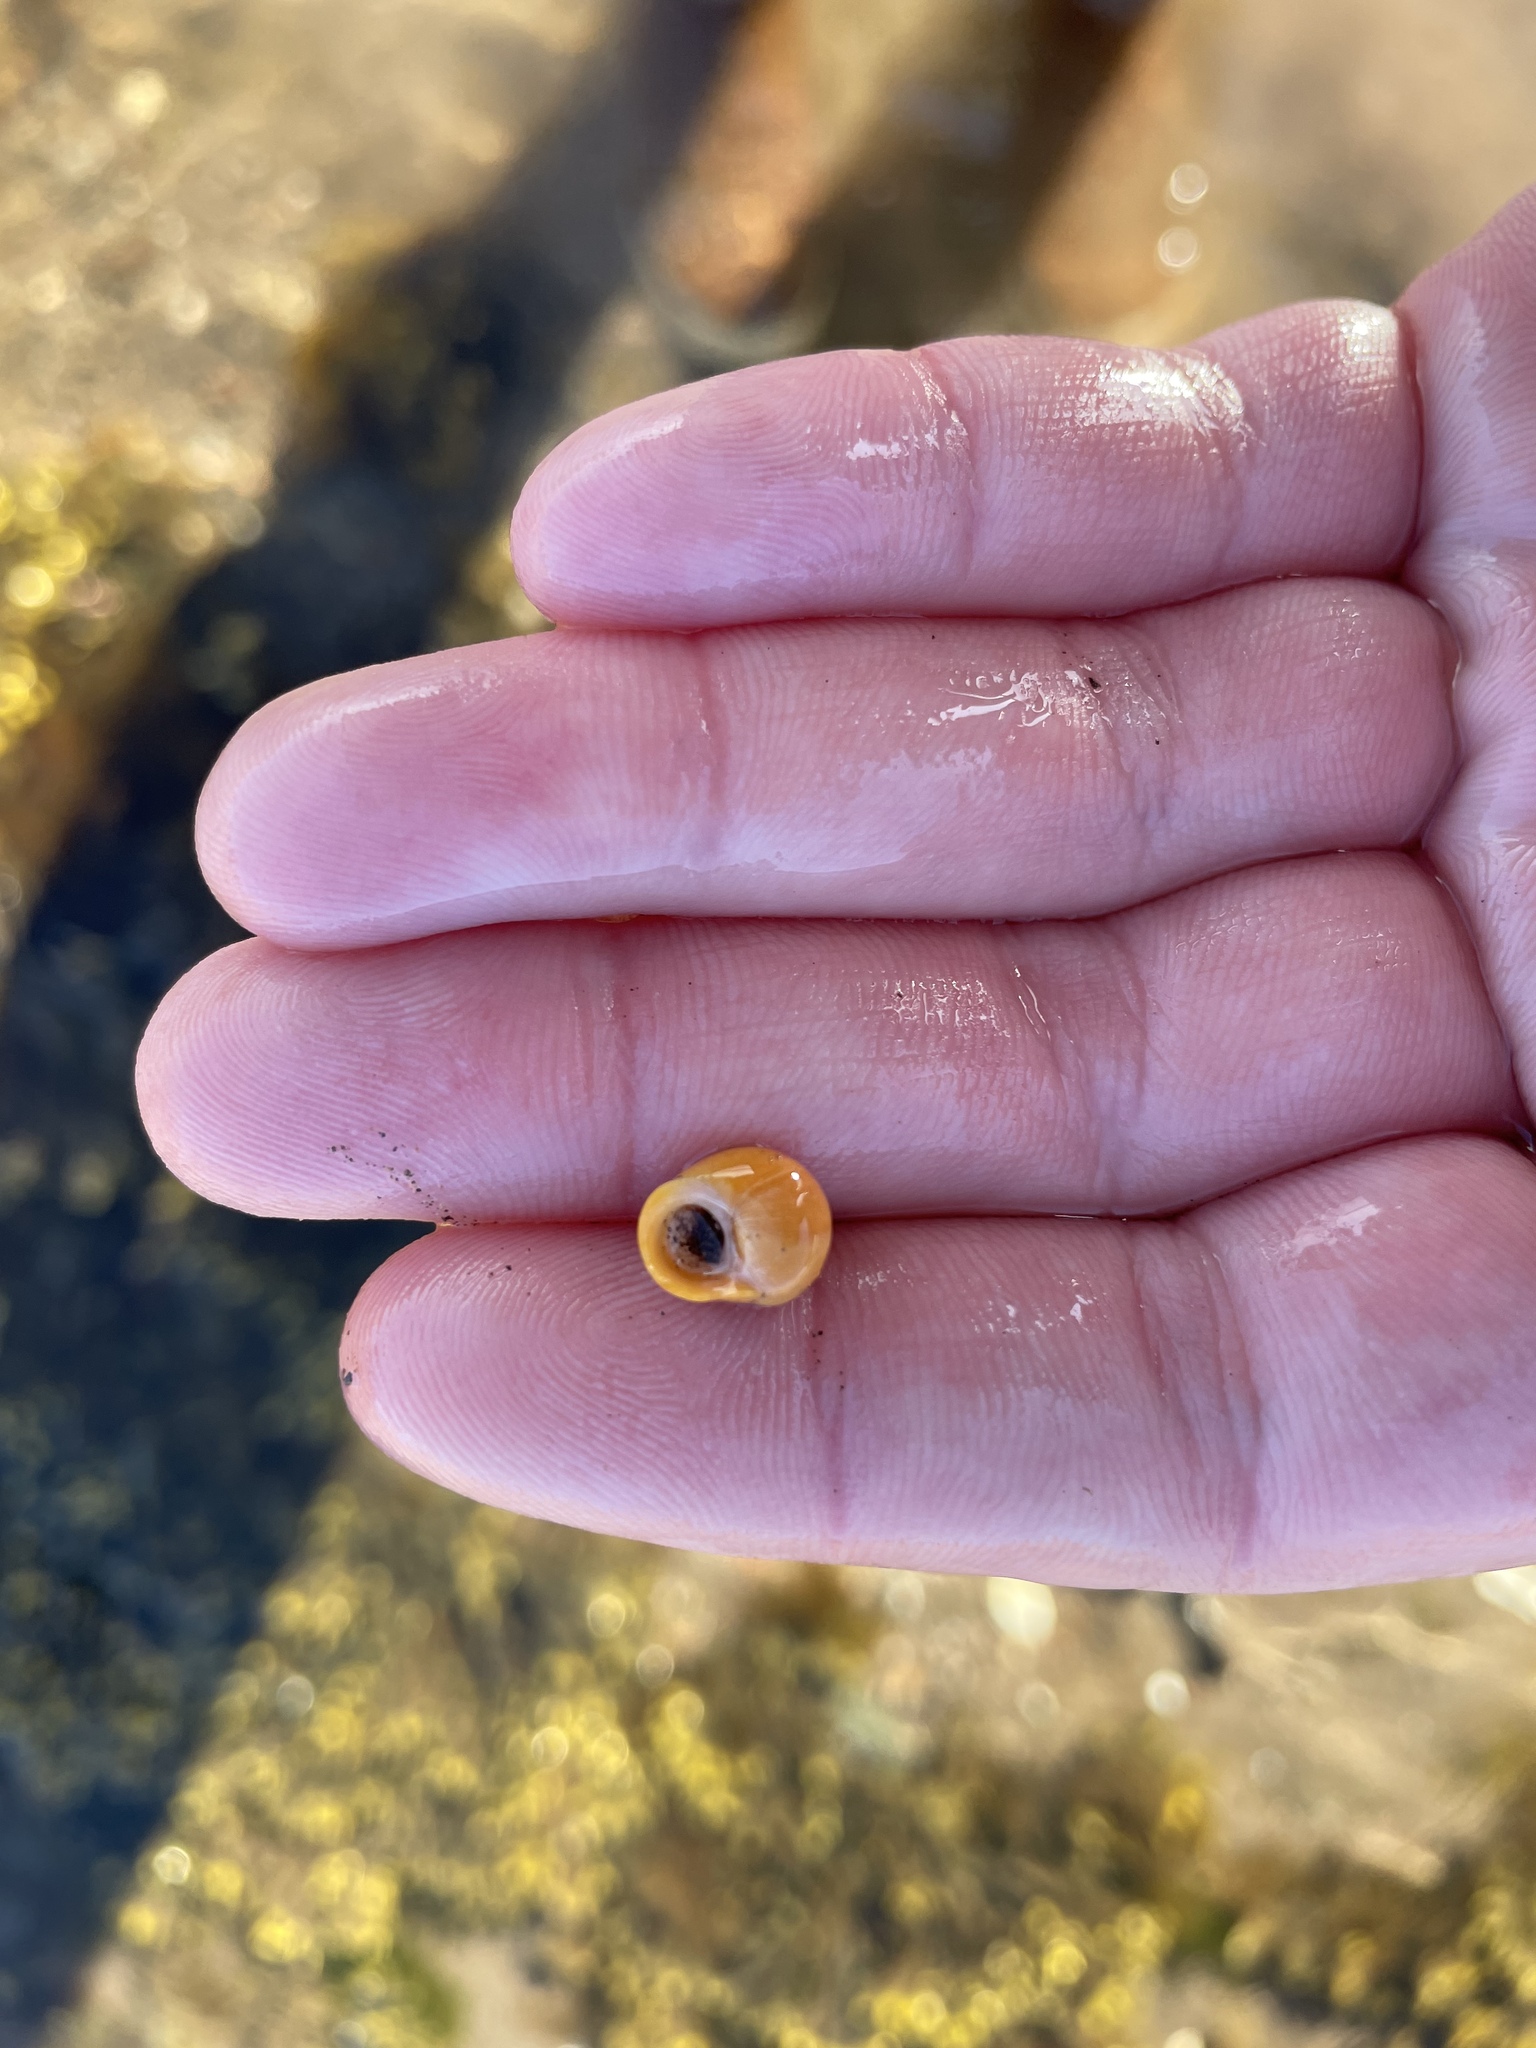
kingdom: Animalia
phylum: Mollusca
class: Gastropoda
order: Littorinimorpha
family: Littorinidae
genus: Littorina
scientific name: Littorina obtusata
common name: Flat periwinkle
